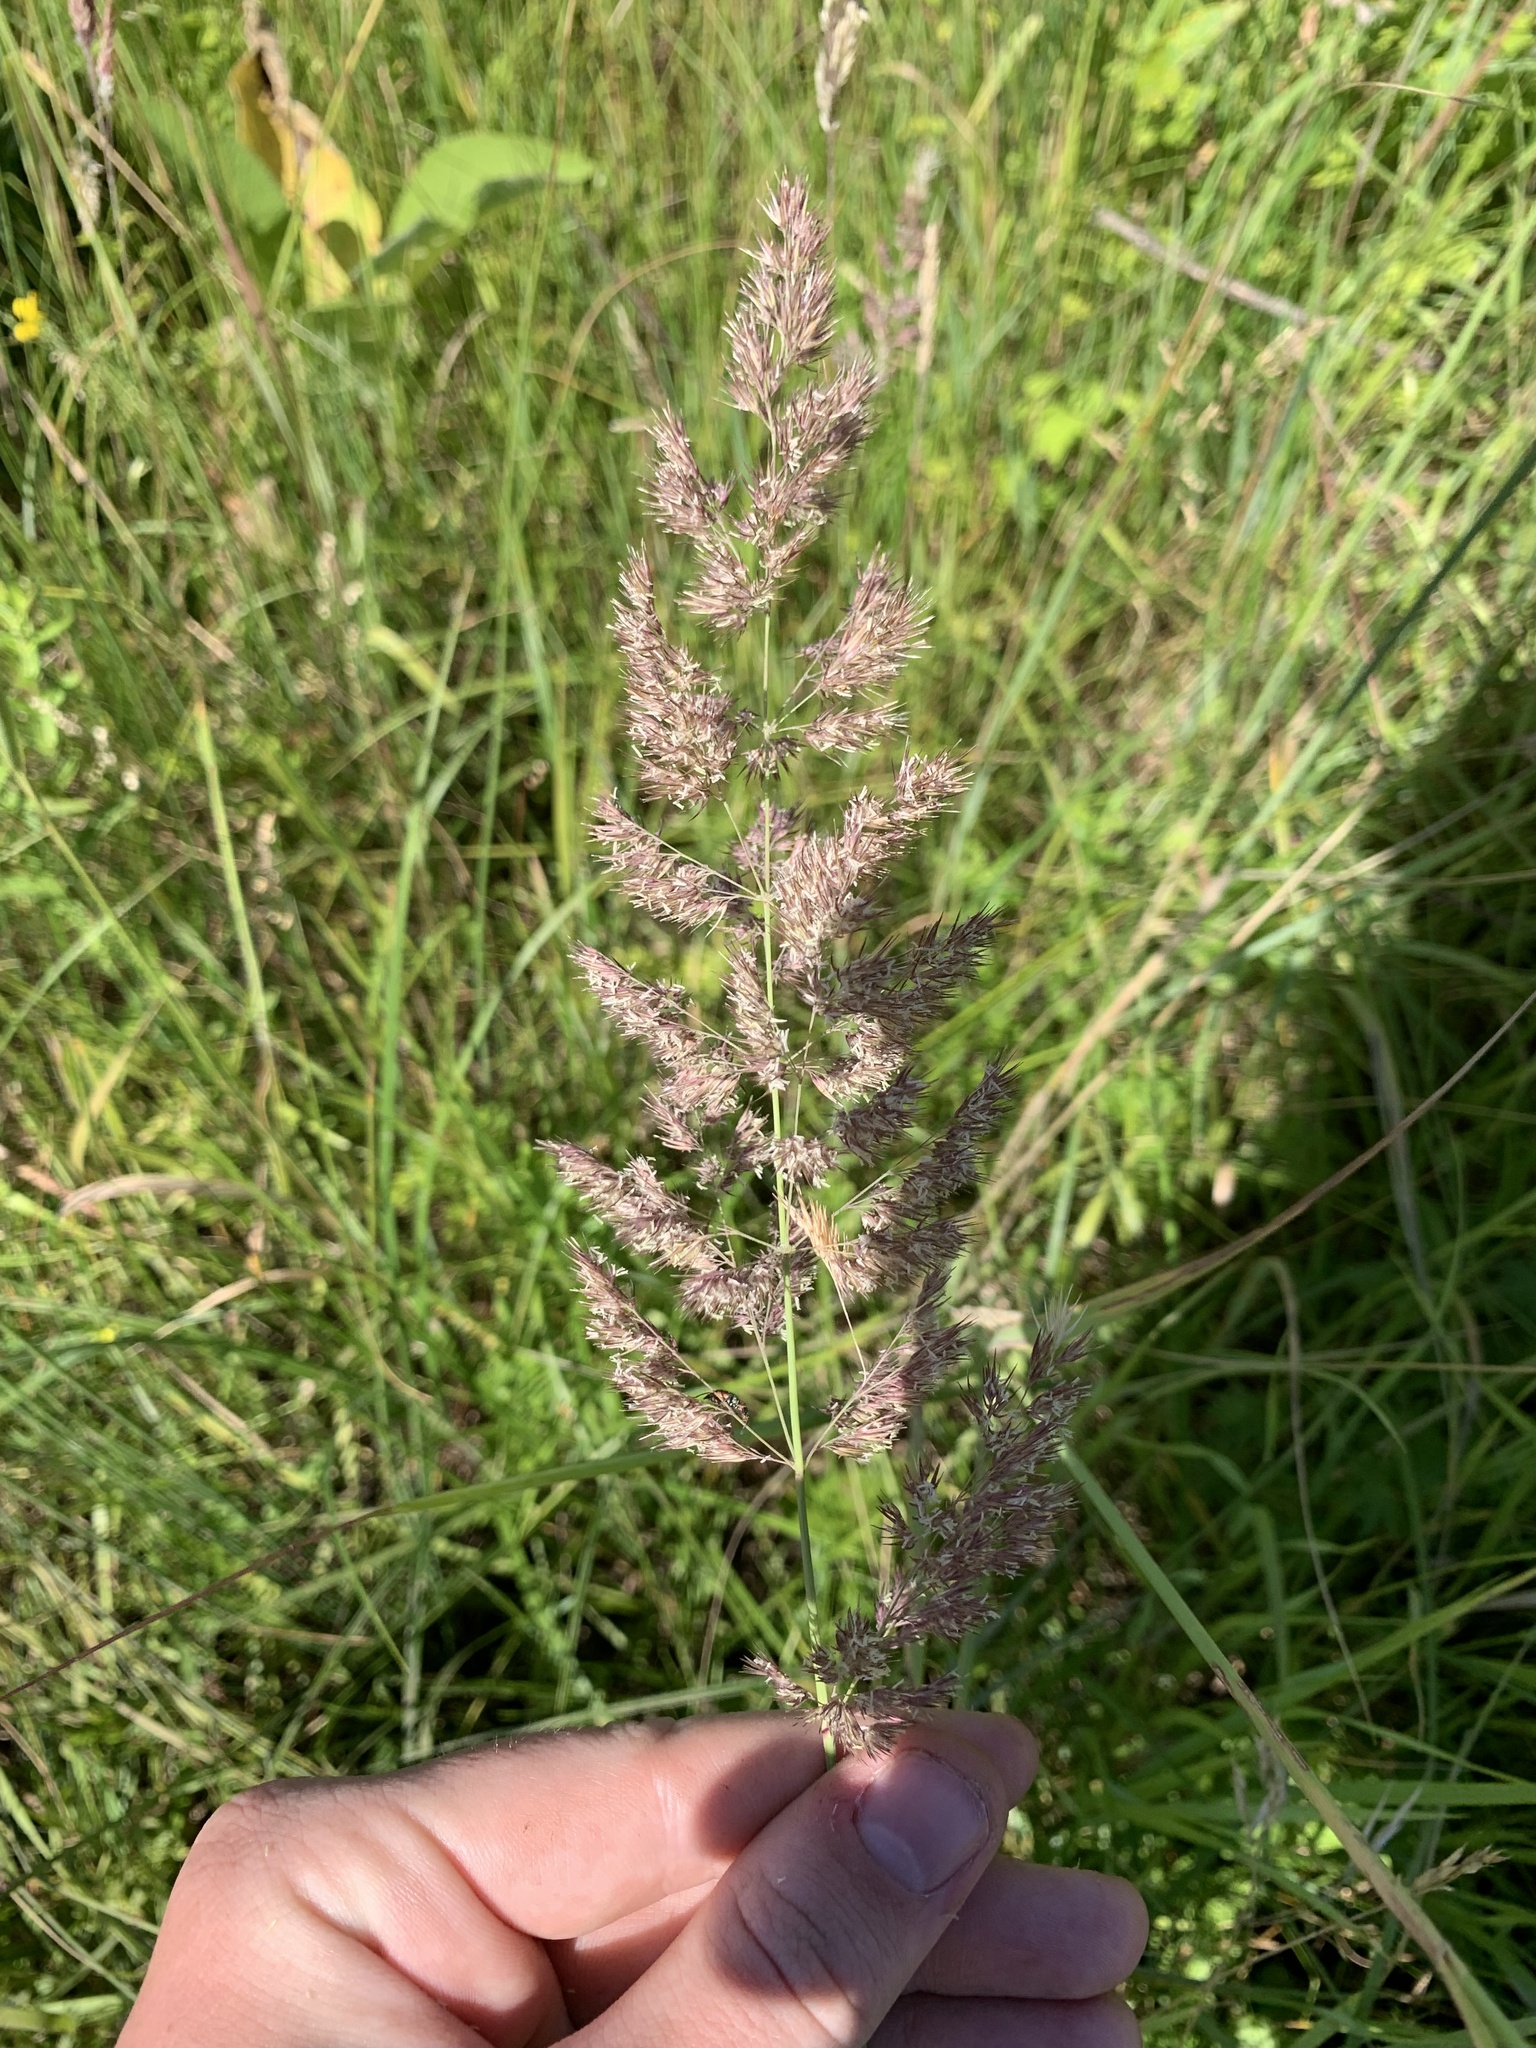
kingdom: Plantae
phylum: Tracheophyta
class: Liliopsida
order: Poales
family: Poaceae
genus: Calamagrostis
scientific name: Calamagrostis epigejos
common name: Wood small-reed
